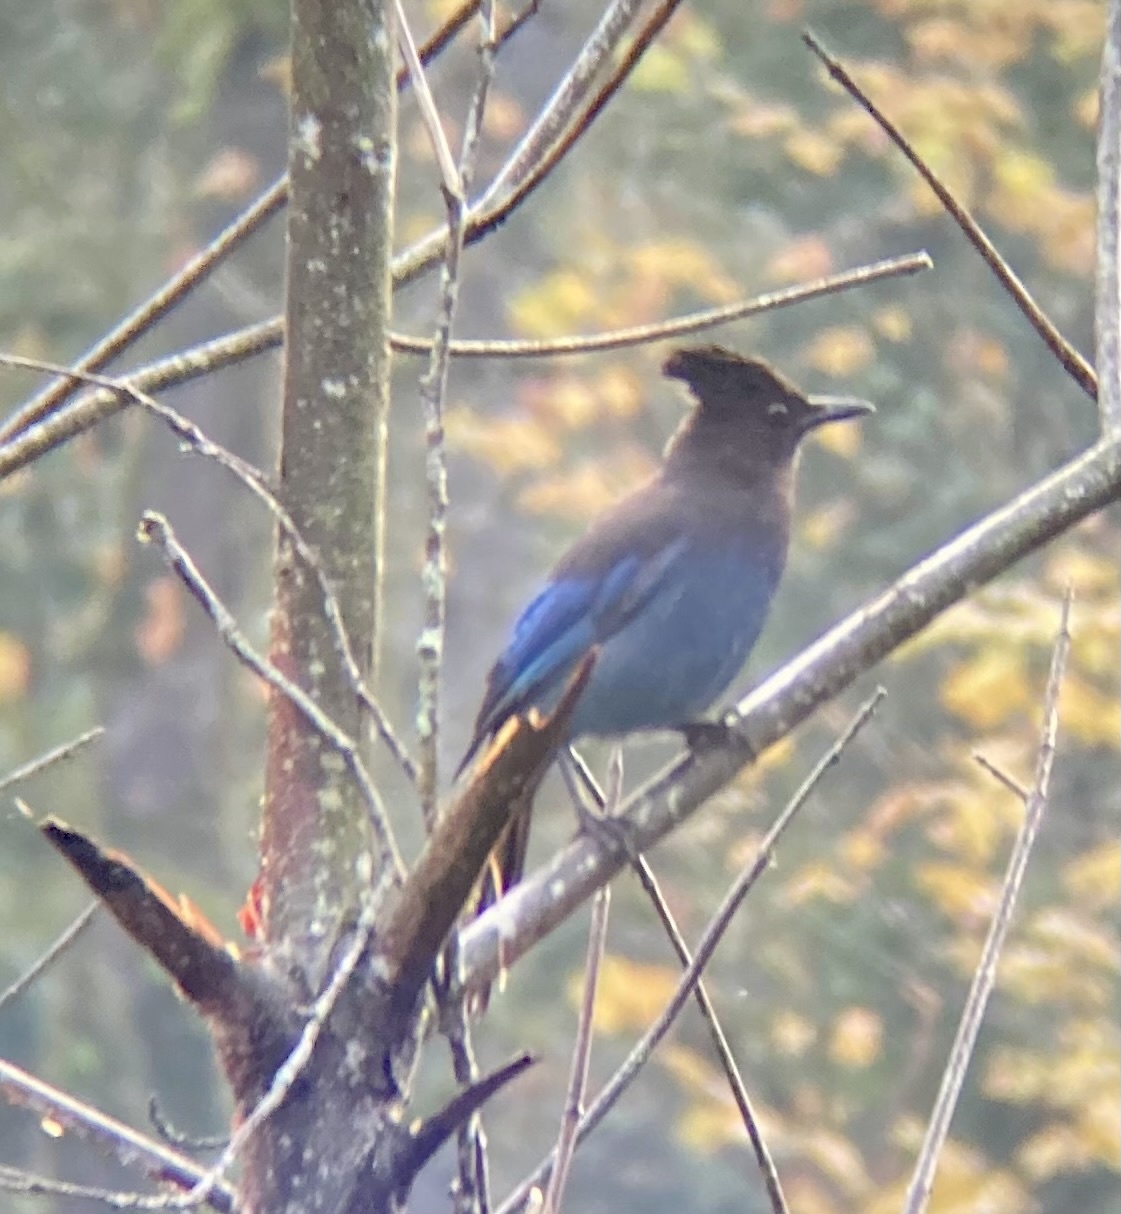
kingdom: Animalia
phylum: Chordata
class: Aves
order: Passeriformes
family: Corvidae
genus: Cyanocitta
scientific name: Cyanocitta stelleri
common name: Steller's jay
